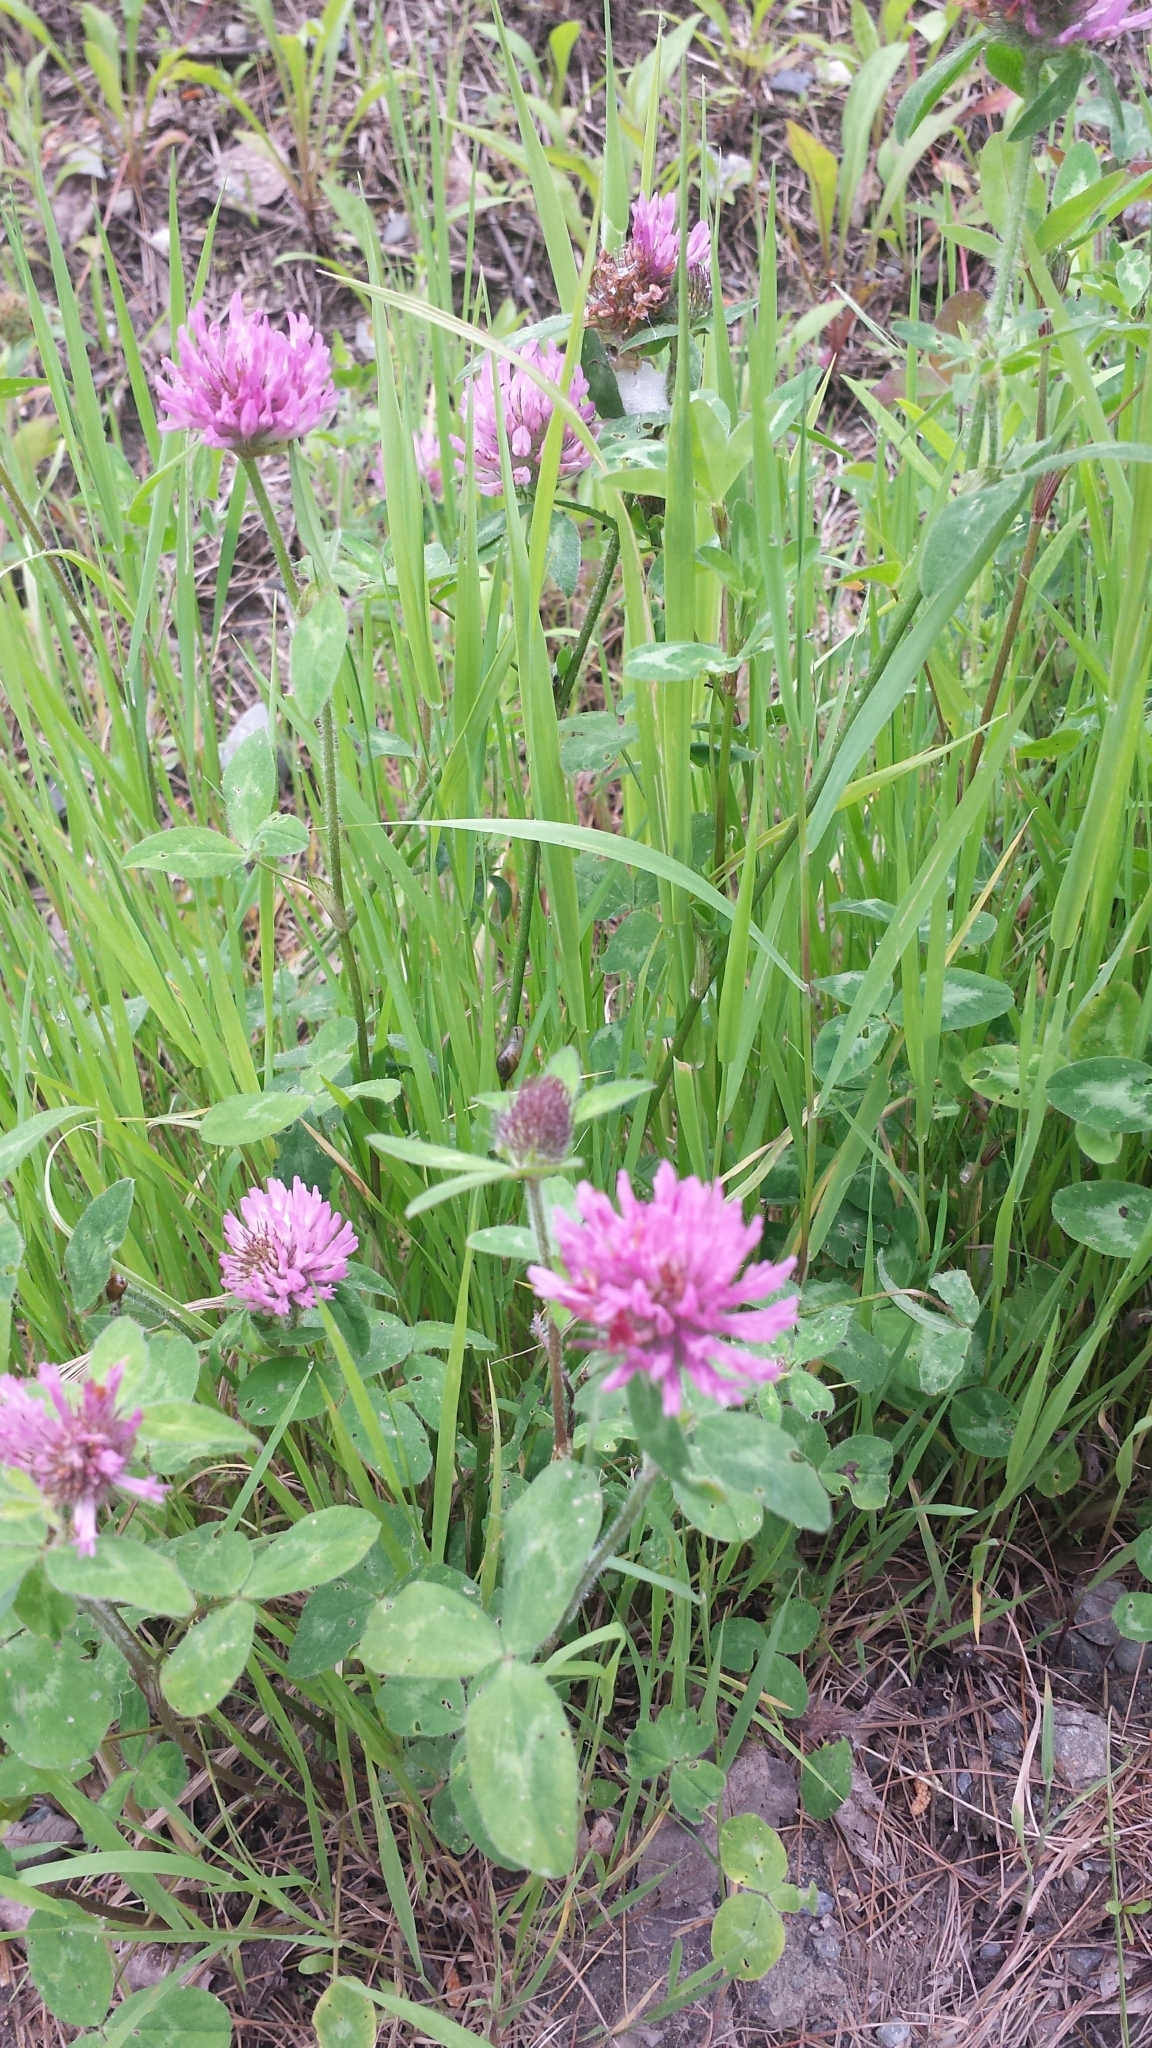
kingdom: Plantae
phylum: Tracheophyta
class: Magnoliopsida
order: Fabales
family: Fabaceae
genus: Trifolium
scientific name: Trifolium pratense
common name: Red clover
